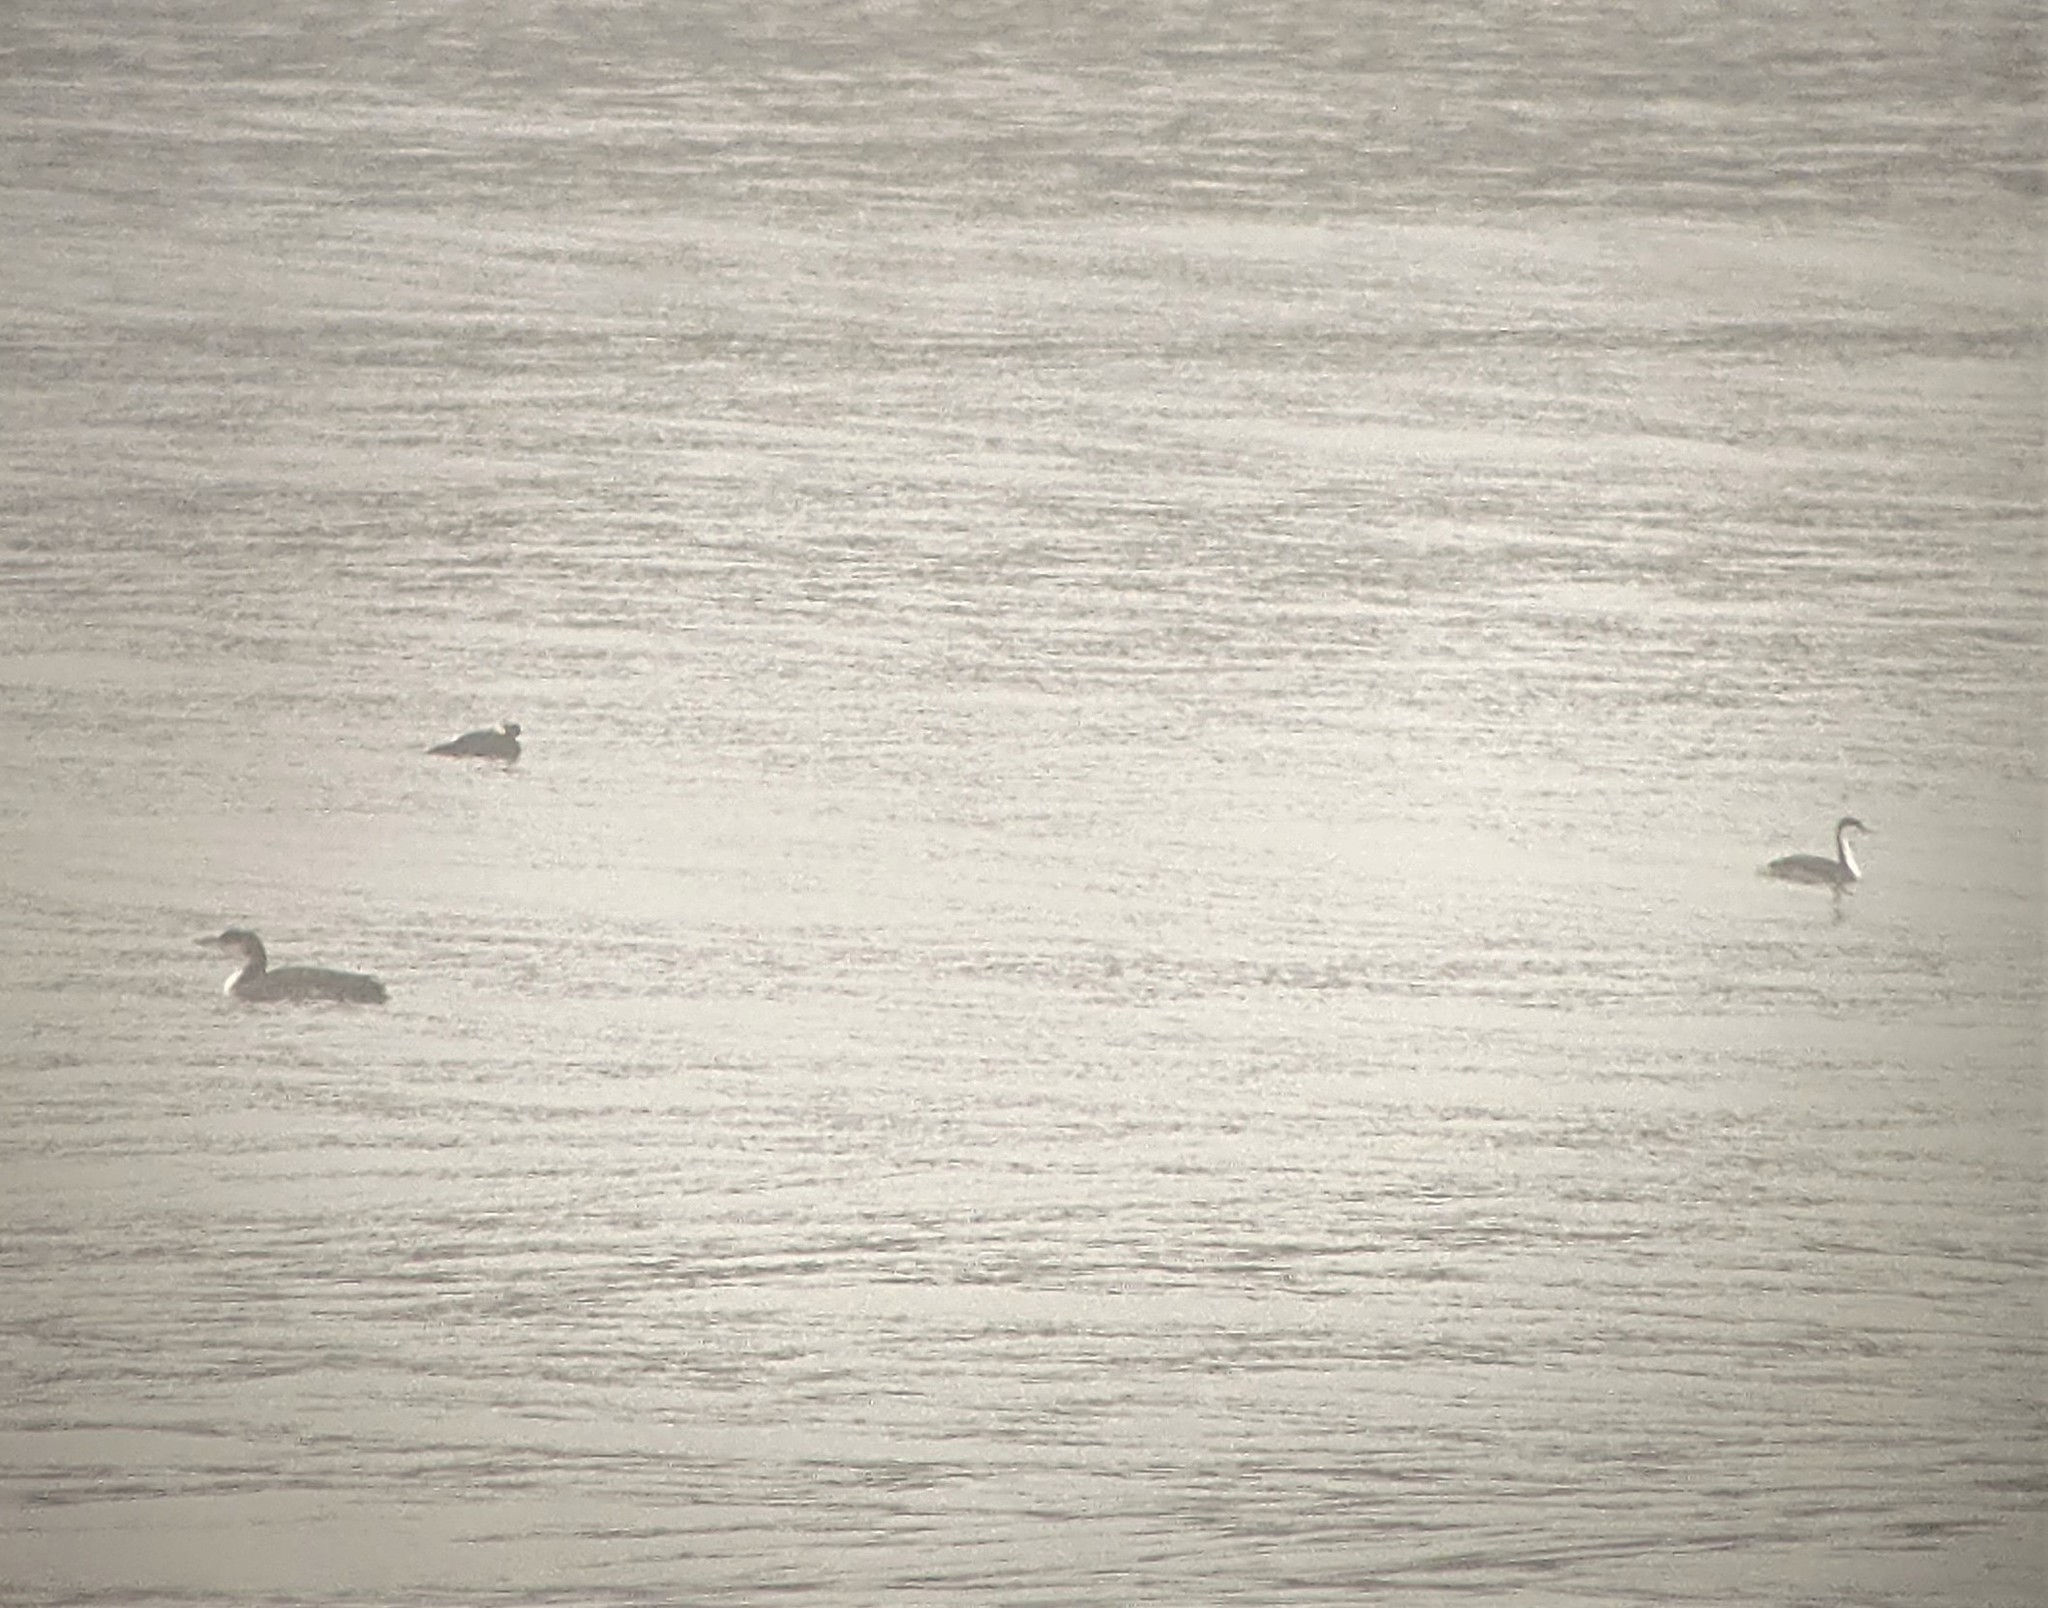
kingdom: Animalia
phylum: Chordata
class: Aves
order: Gaviiformes
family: Gaviidae
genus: Gavia
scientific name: Gavia immer
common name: Common loon
